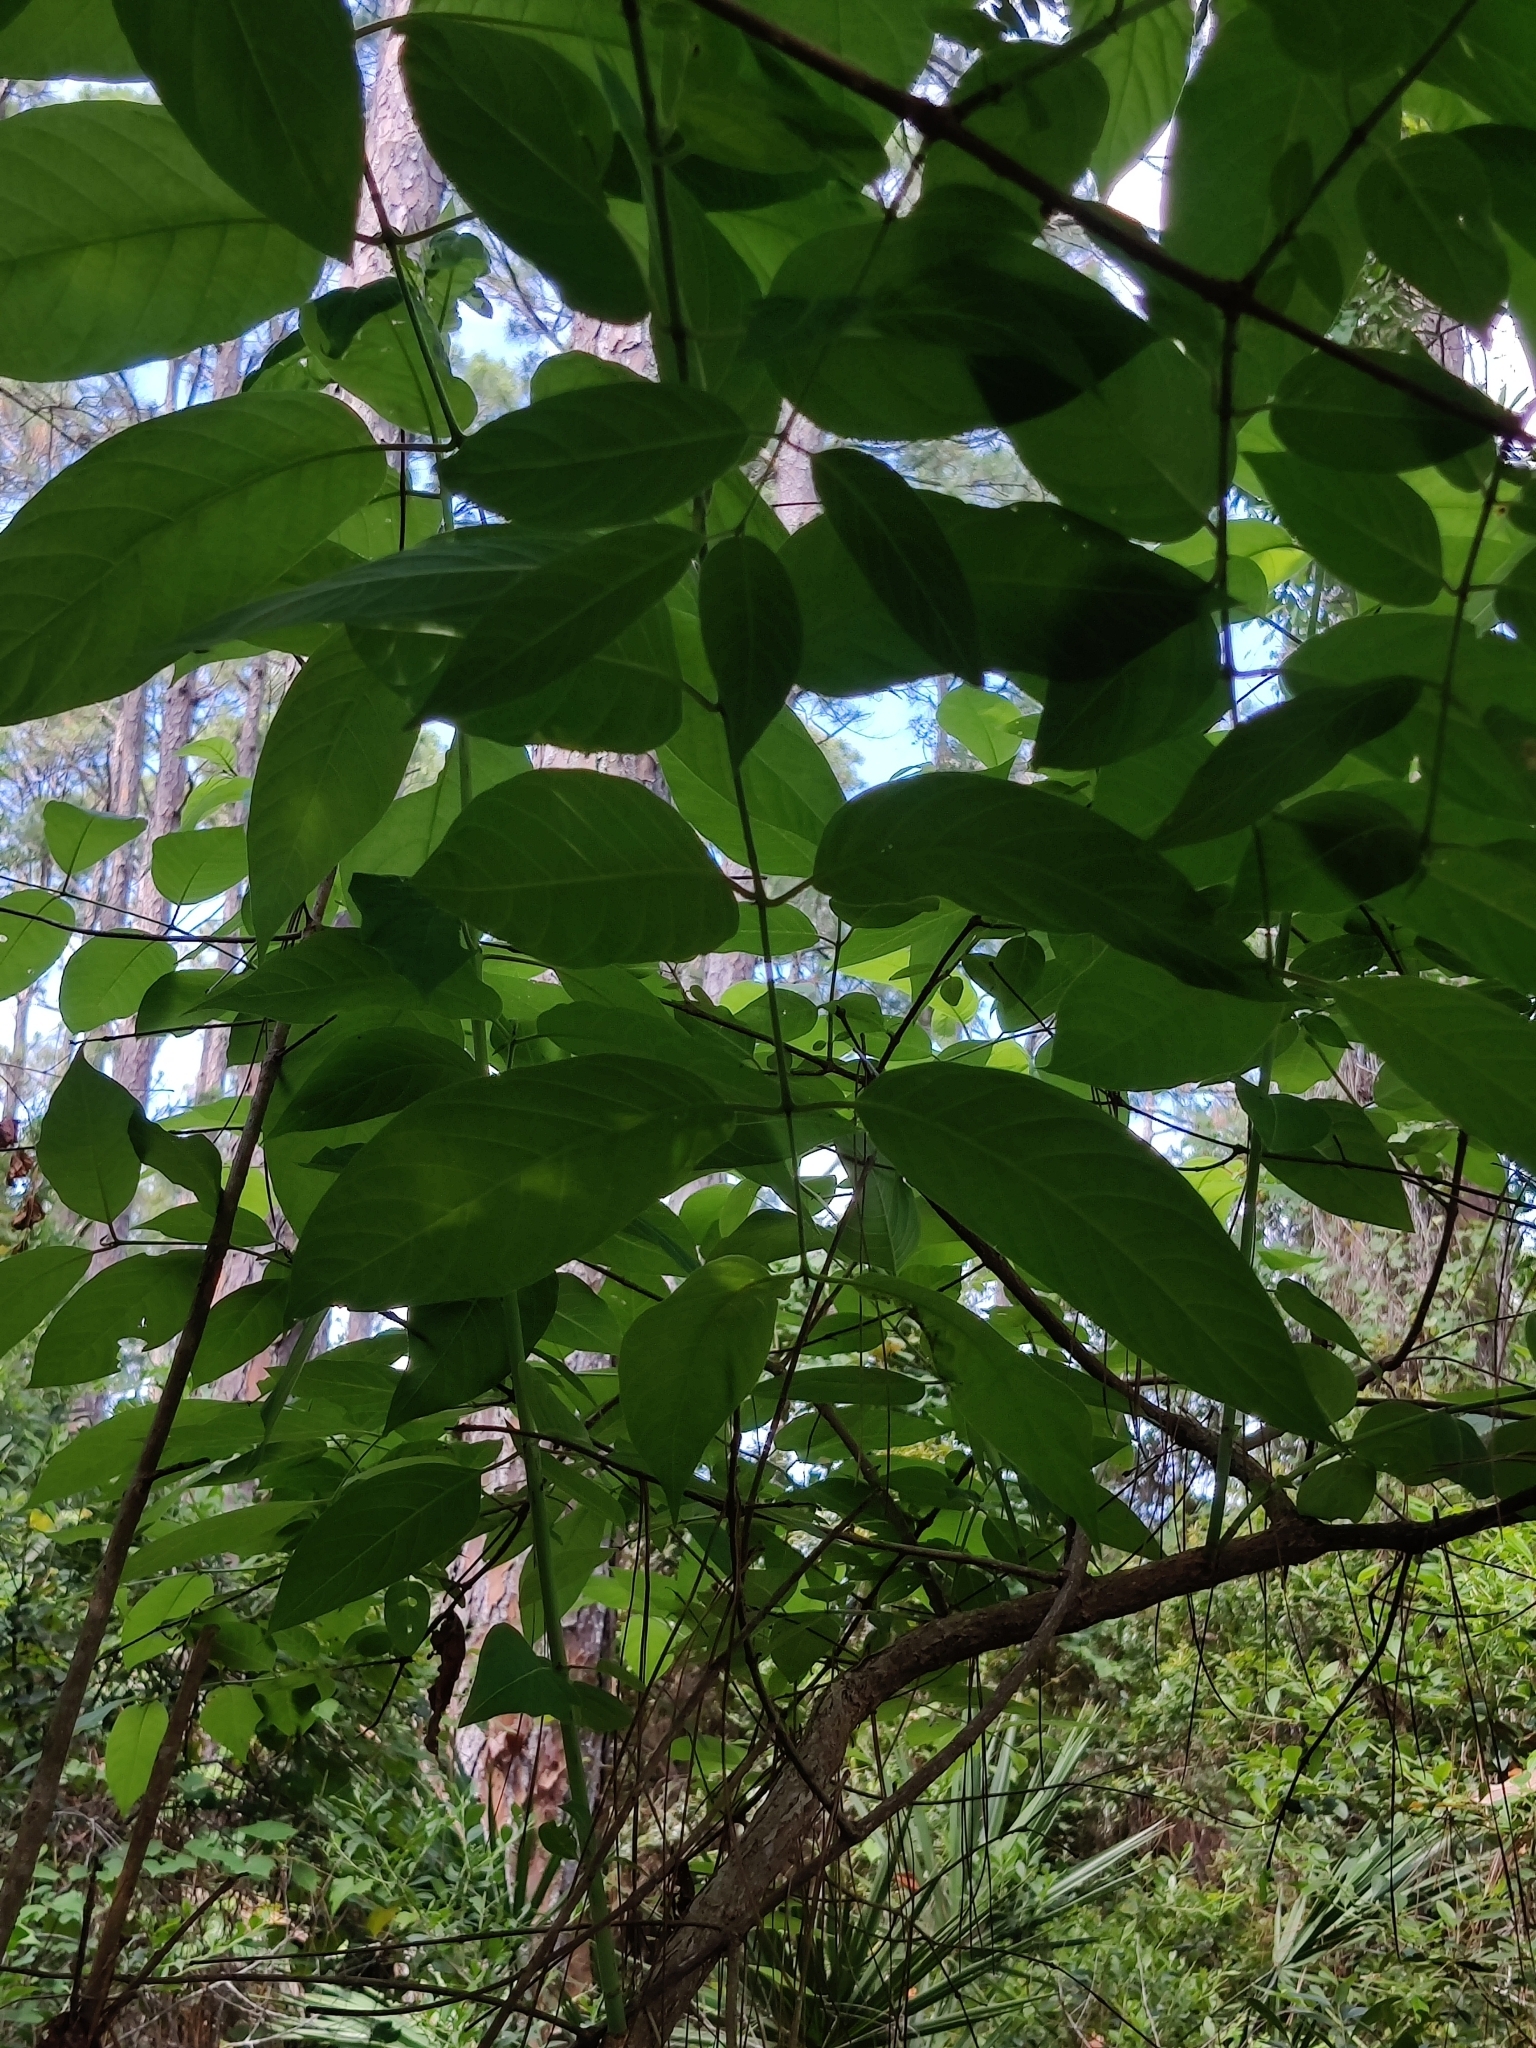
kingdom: Plantae
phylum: Tracheophyta
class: Magnoliopsida
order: Gentianales
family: Rubiaceae
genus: Cephalanthus
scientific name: Cephalanthus occidentalis
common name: Button-willow
